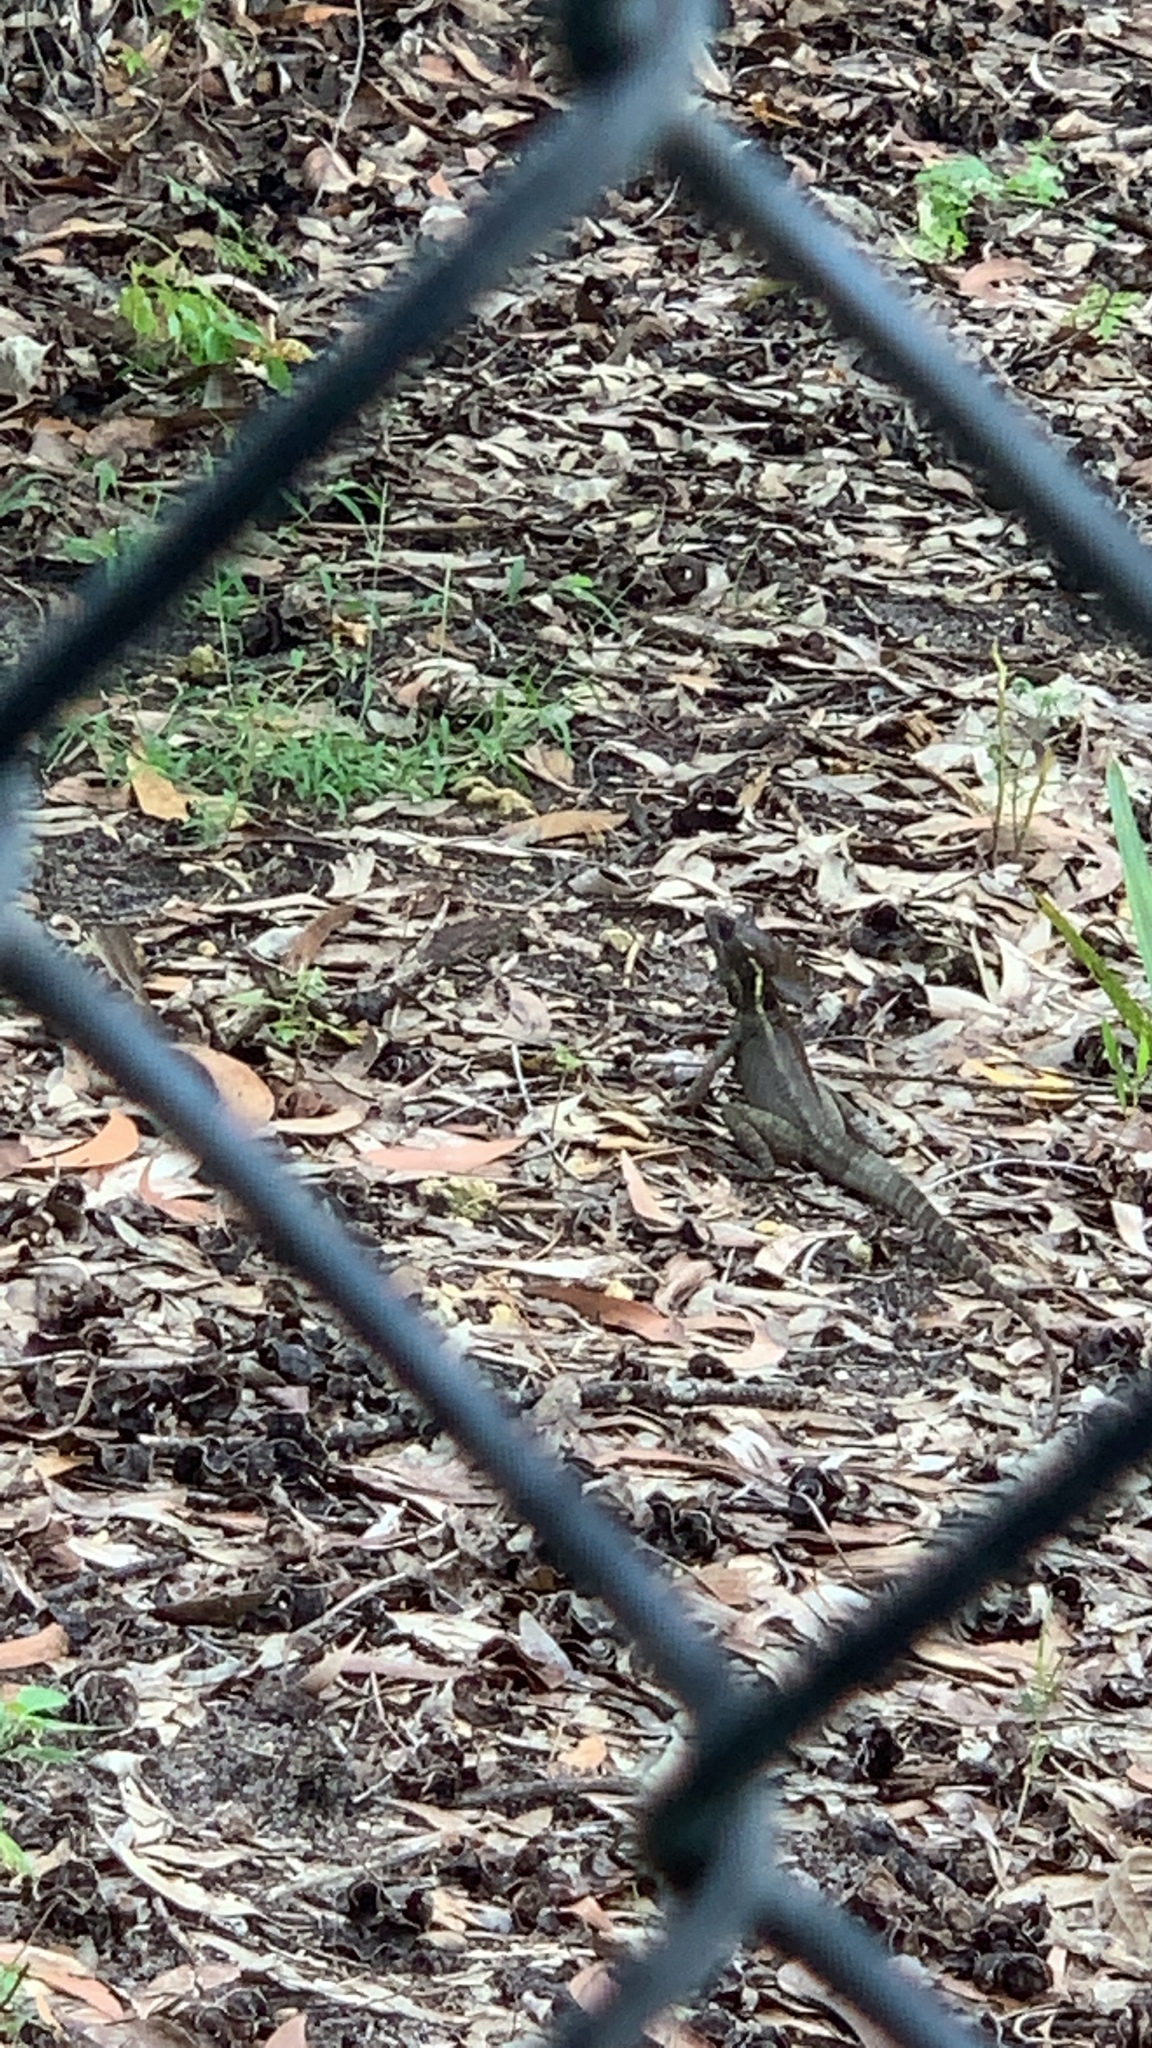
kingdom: Animalia
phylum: Chordata
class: Squamata
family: Corytophanidae
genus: Basiliscus
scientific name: Basiliscus vittatus
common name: Brown basilisk
